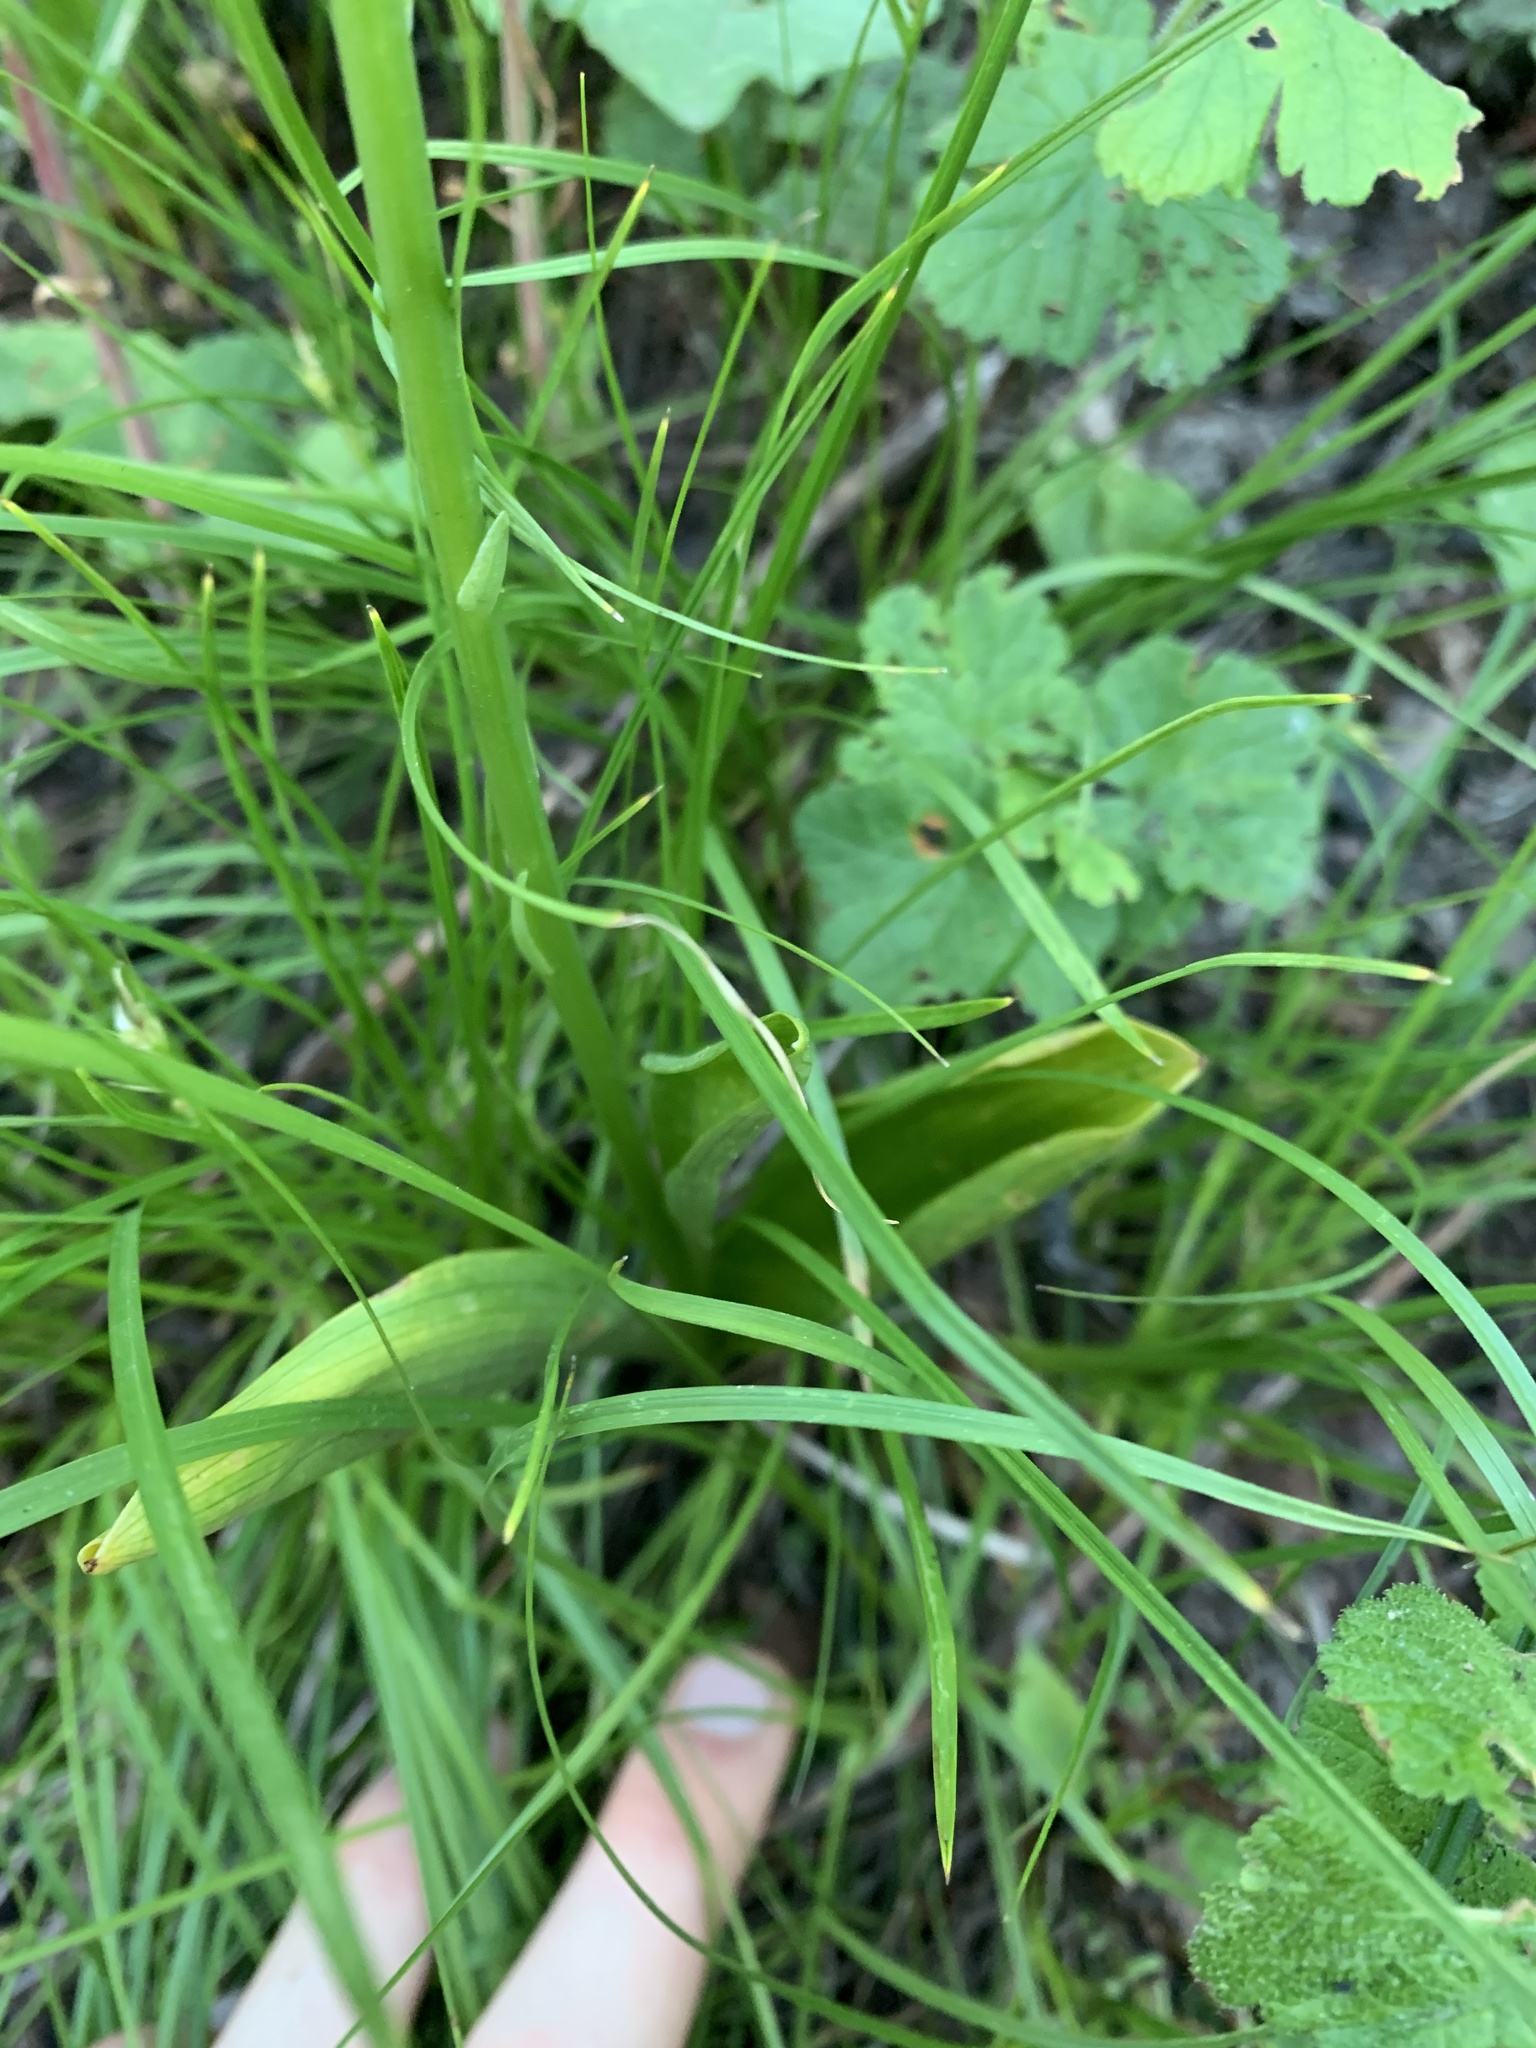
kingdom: Plantae
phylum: Tracheophyta
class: Liliopsida
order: Asparagales
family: Orchidaceae
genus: Platanthera
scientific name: Platanthera unalascensis
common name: Alaska bog orchid
